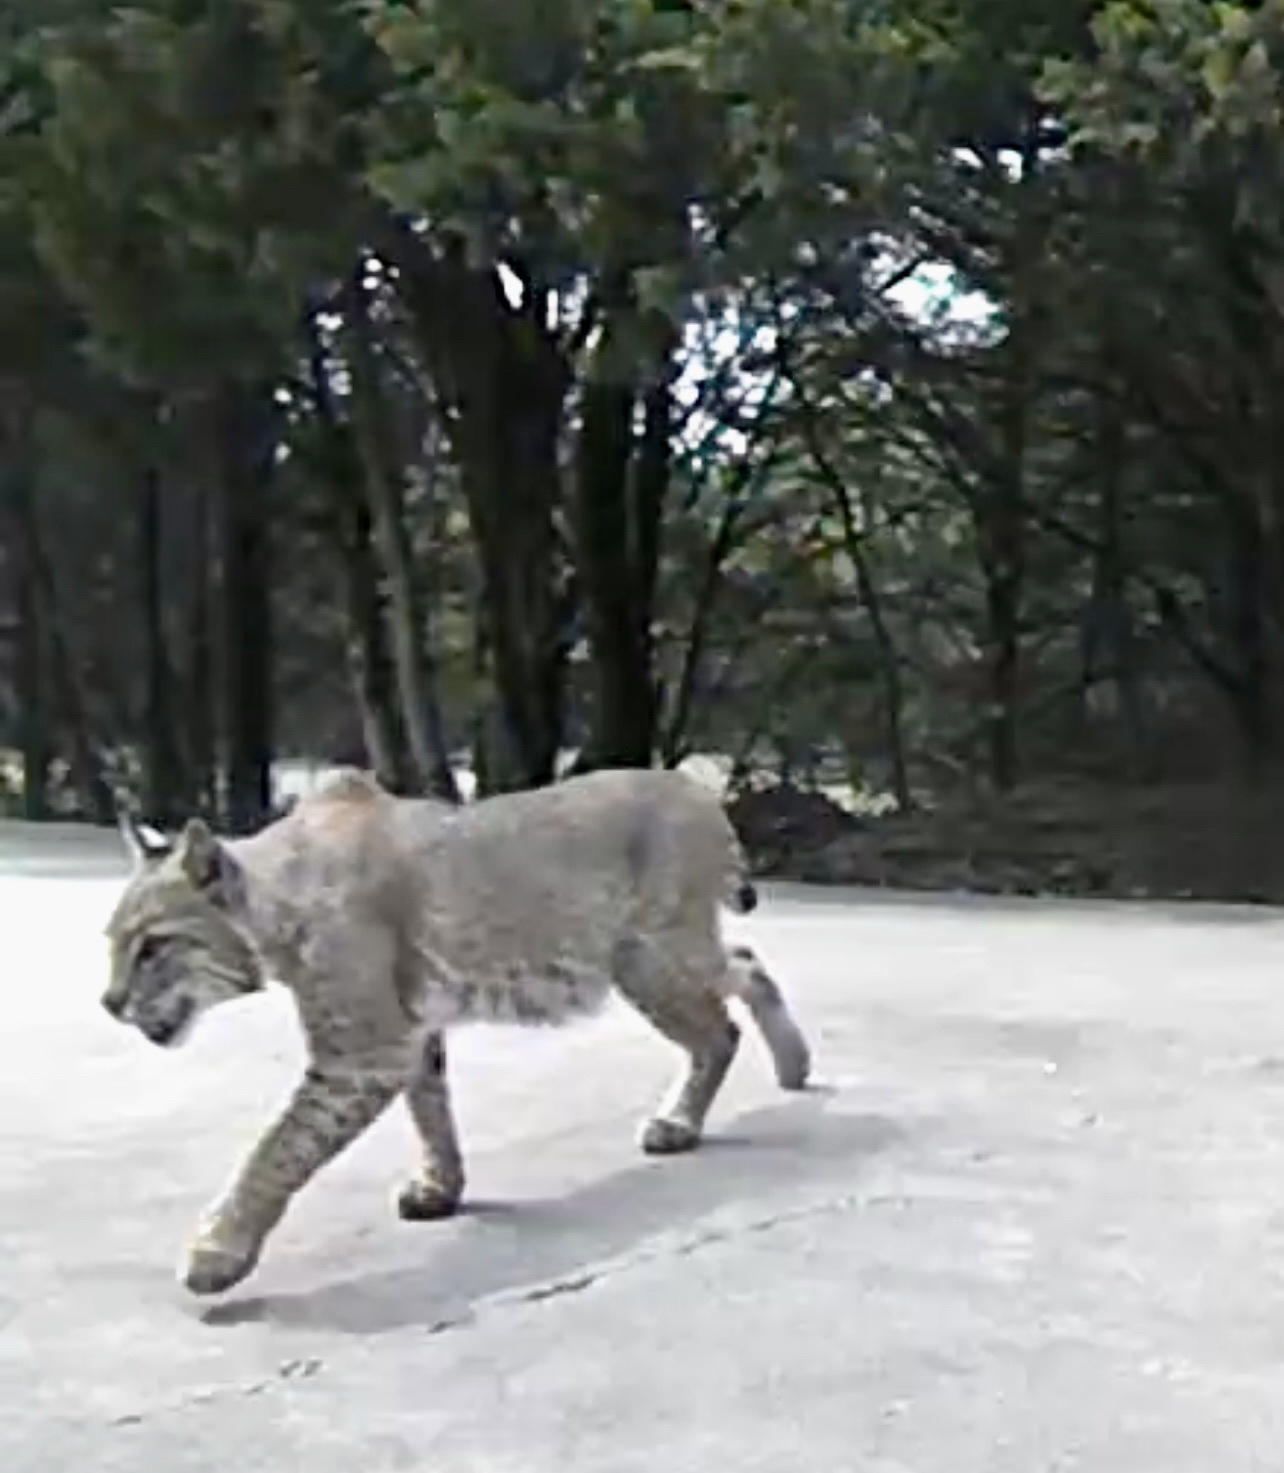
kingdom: Animalia
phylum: Chordata
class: Mammalia
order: Carnivora
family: Felidae
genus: Lynx
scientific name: Lynx rufus
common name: Bobcat
